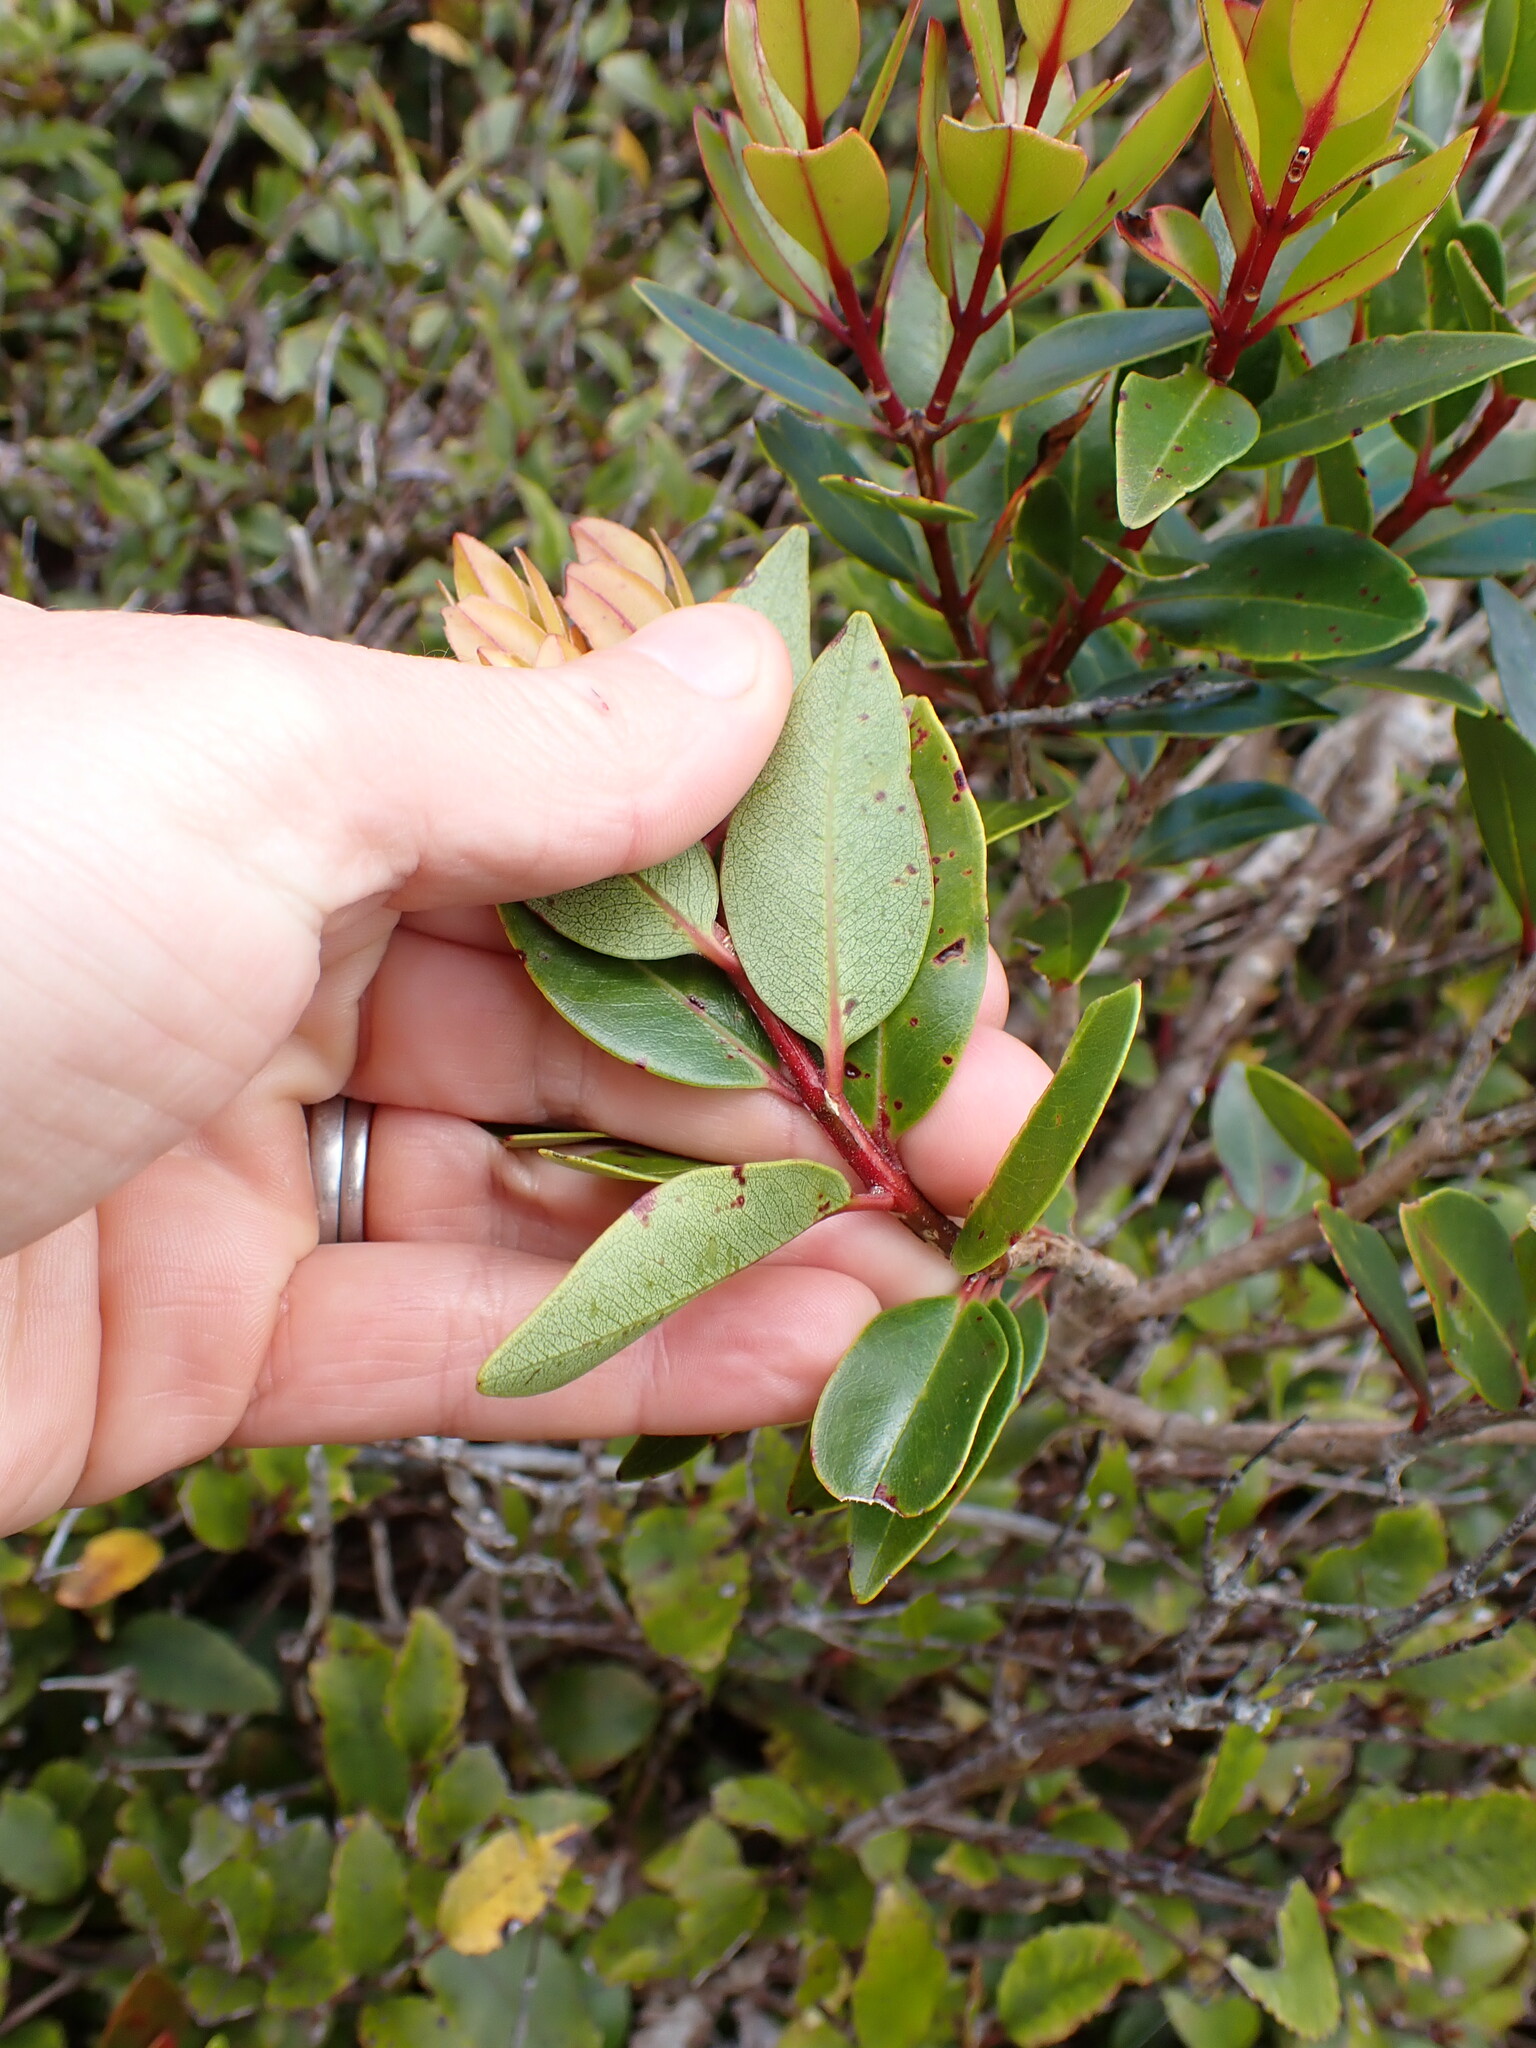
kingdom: Plantae
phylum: Tracheophyta
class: Magnoliopsida
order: Myrtales
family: Myrtaceae
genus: Metrosideros
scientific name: Metrosideros robusta
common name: Northern rata
